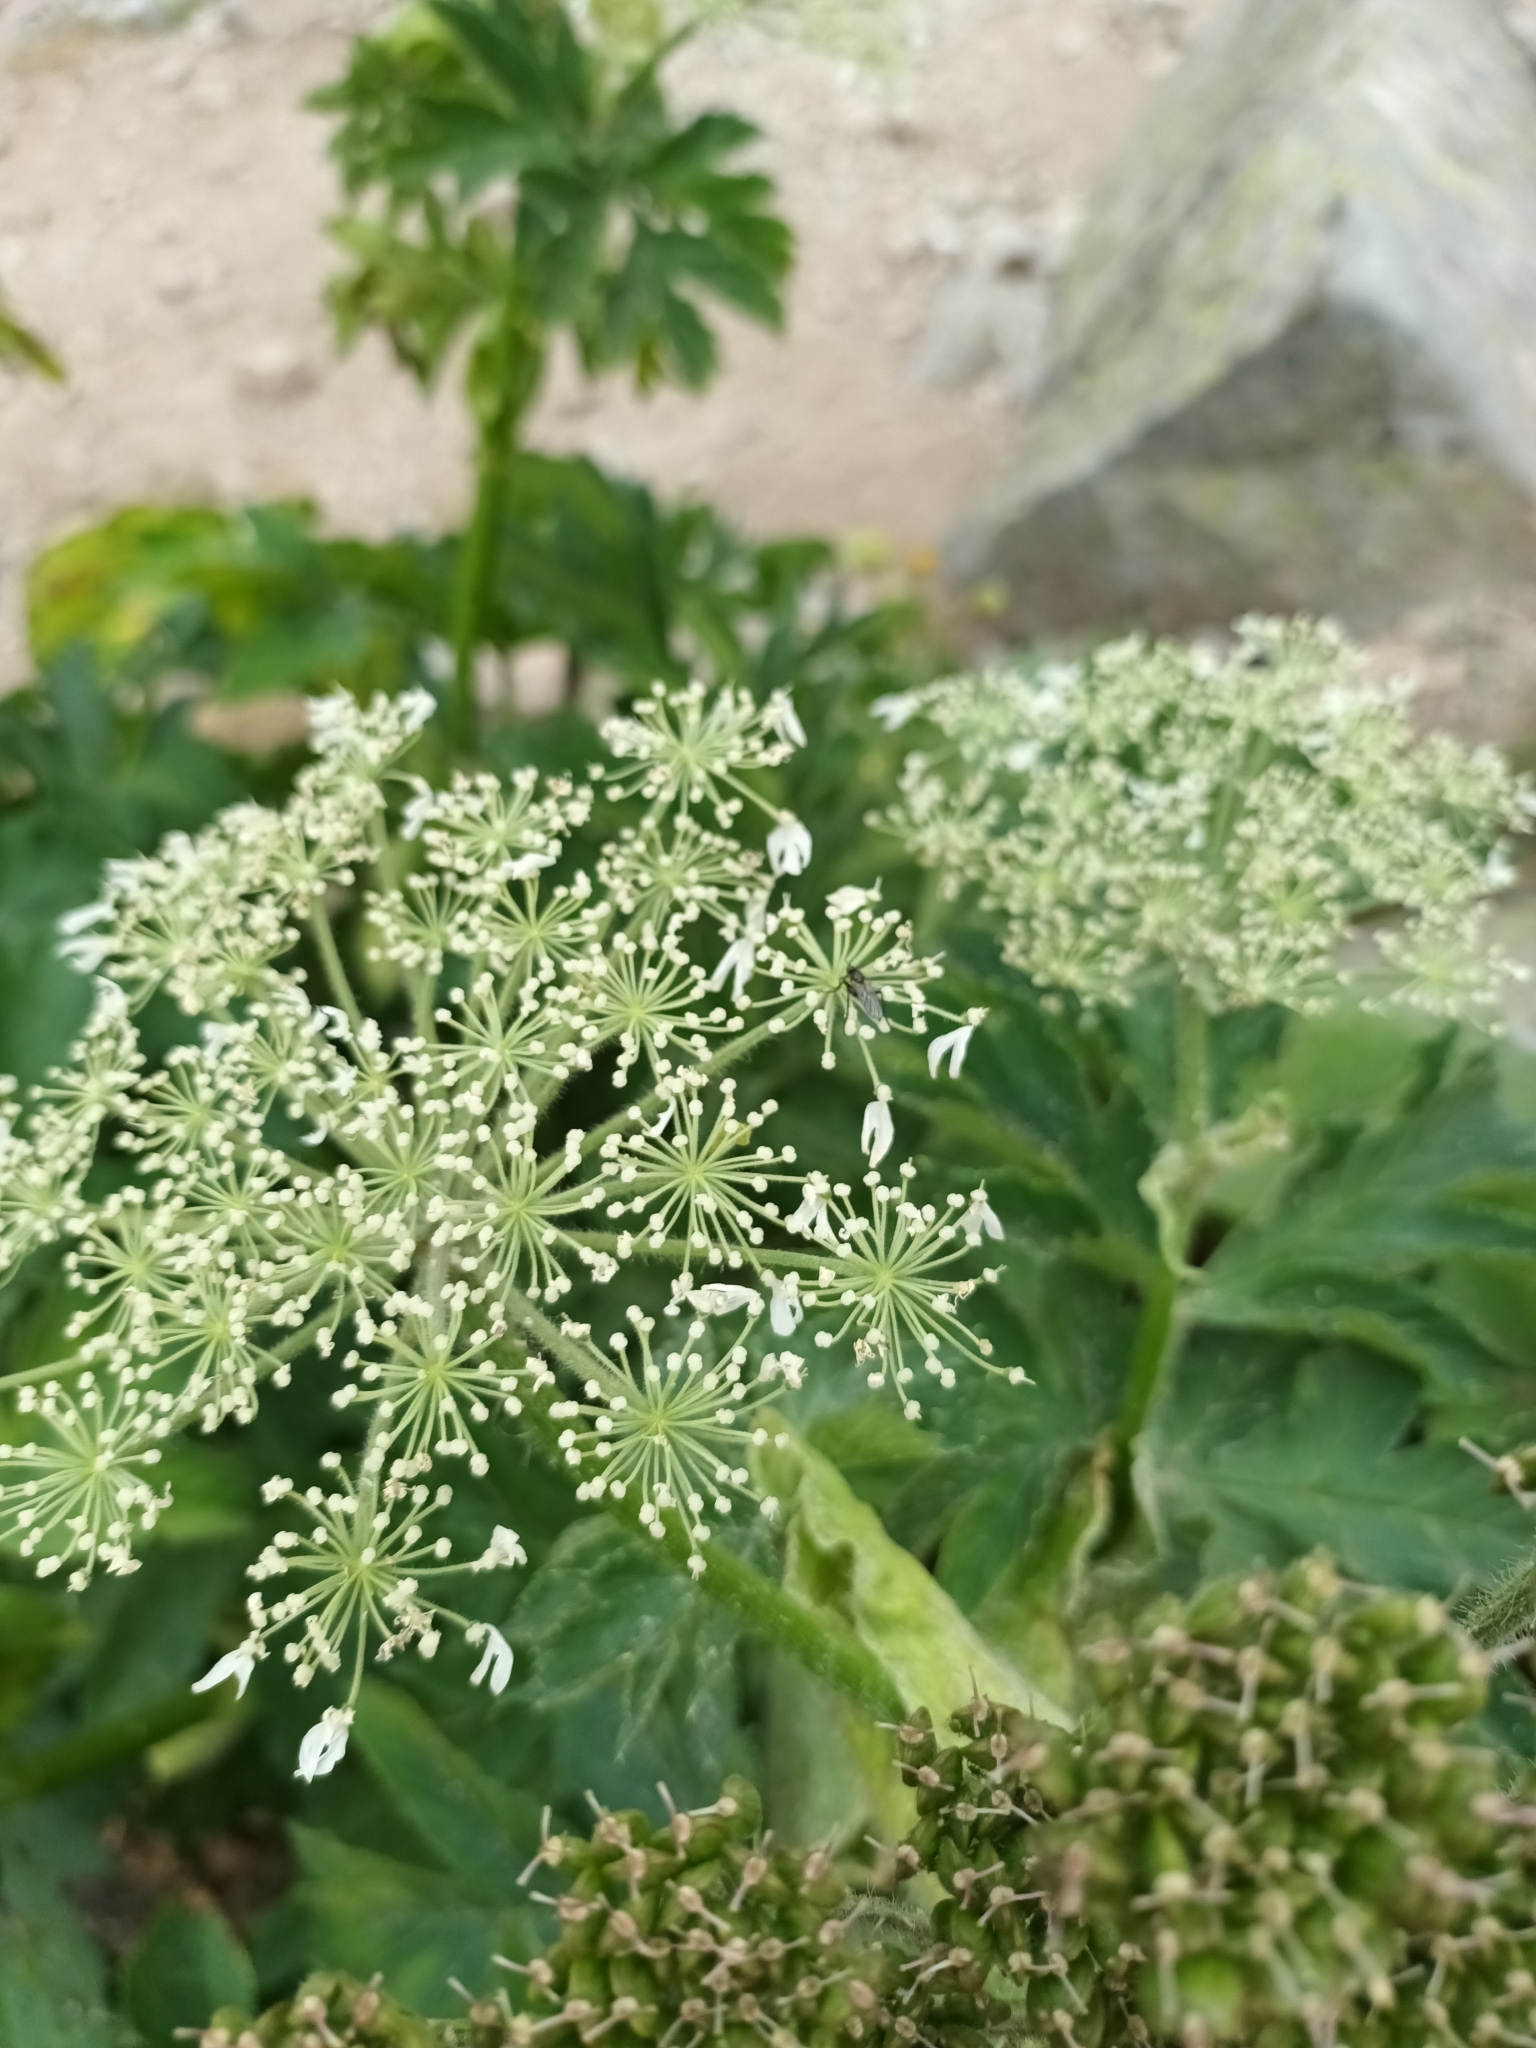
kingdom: Plantae
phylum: Tracheophyta
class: Magnoliopsida
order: Apiales
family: Apiaceae
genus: Heracleum
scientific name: Heracleum sphondylium
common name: Hogweed
